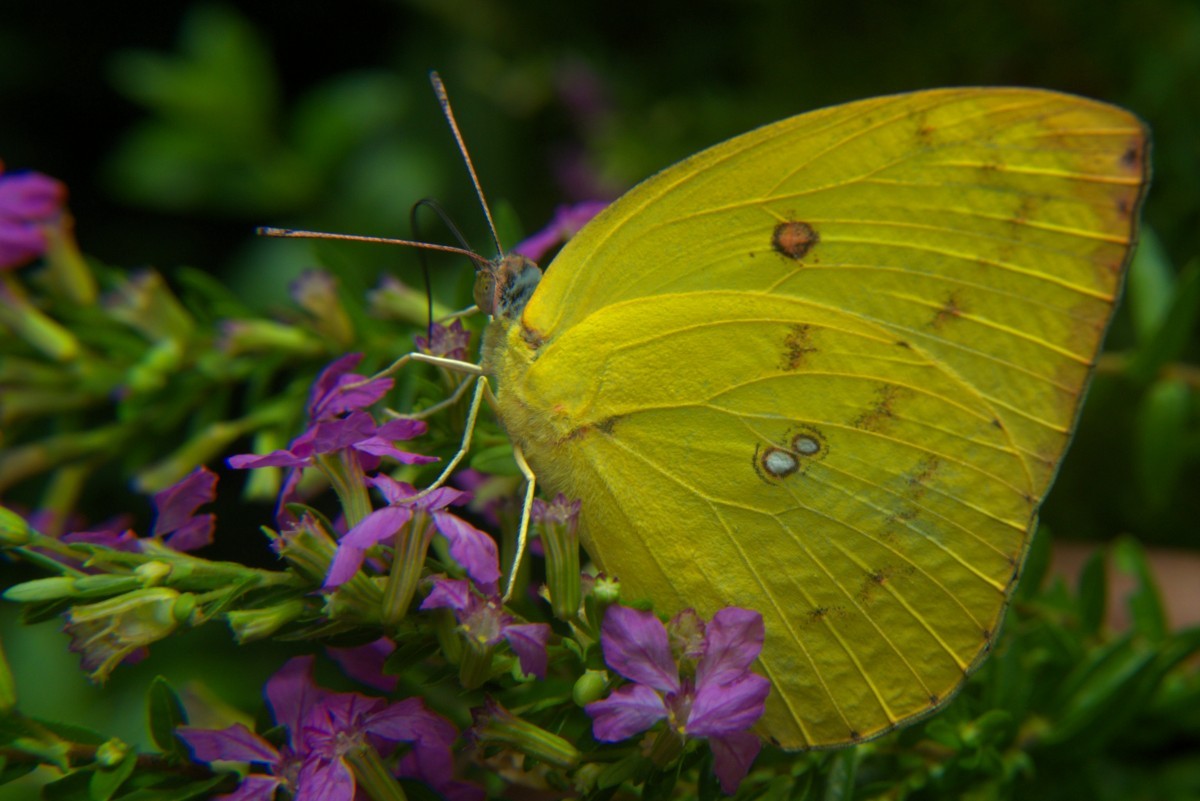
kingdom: Animalia
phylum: Arthropoda
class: Insecta
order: Lepidoptera
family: Pieridae
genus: Catopsilia
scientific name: Catopsilia pomona
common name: Common emigrant
